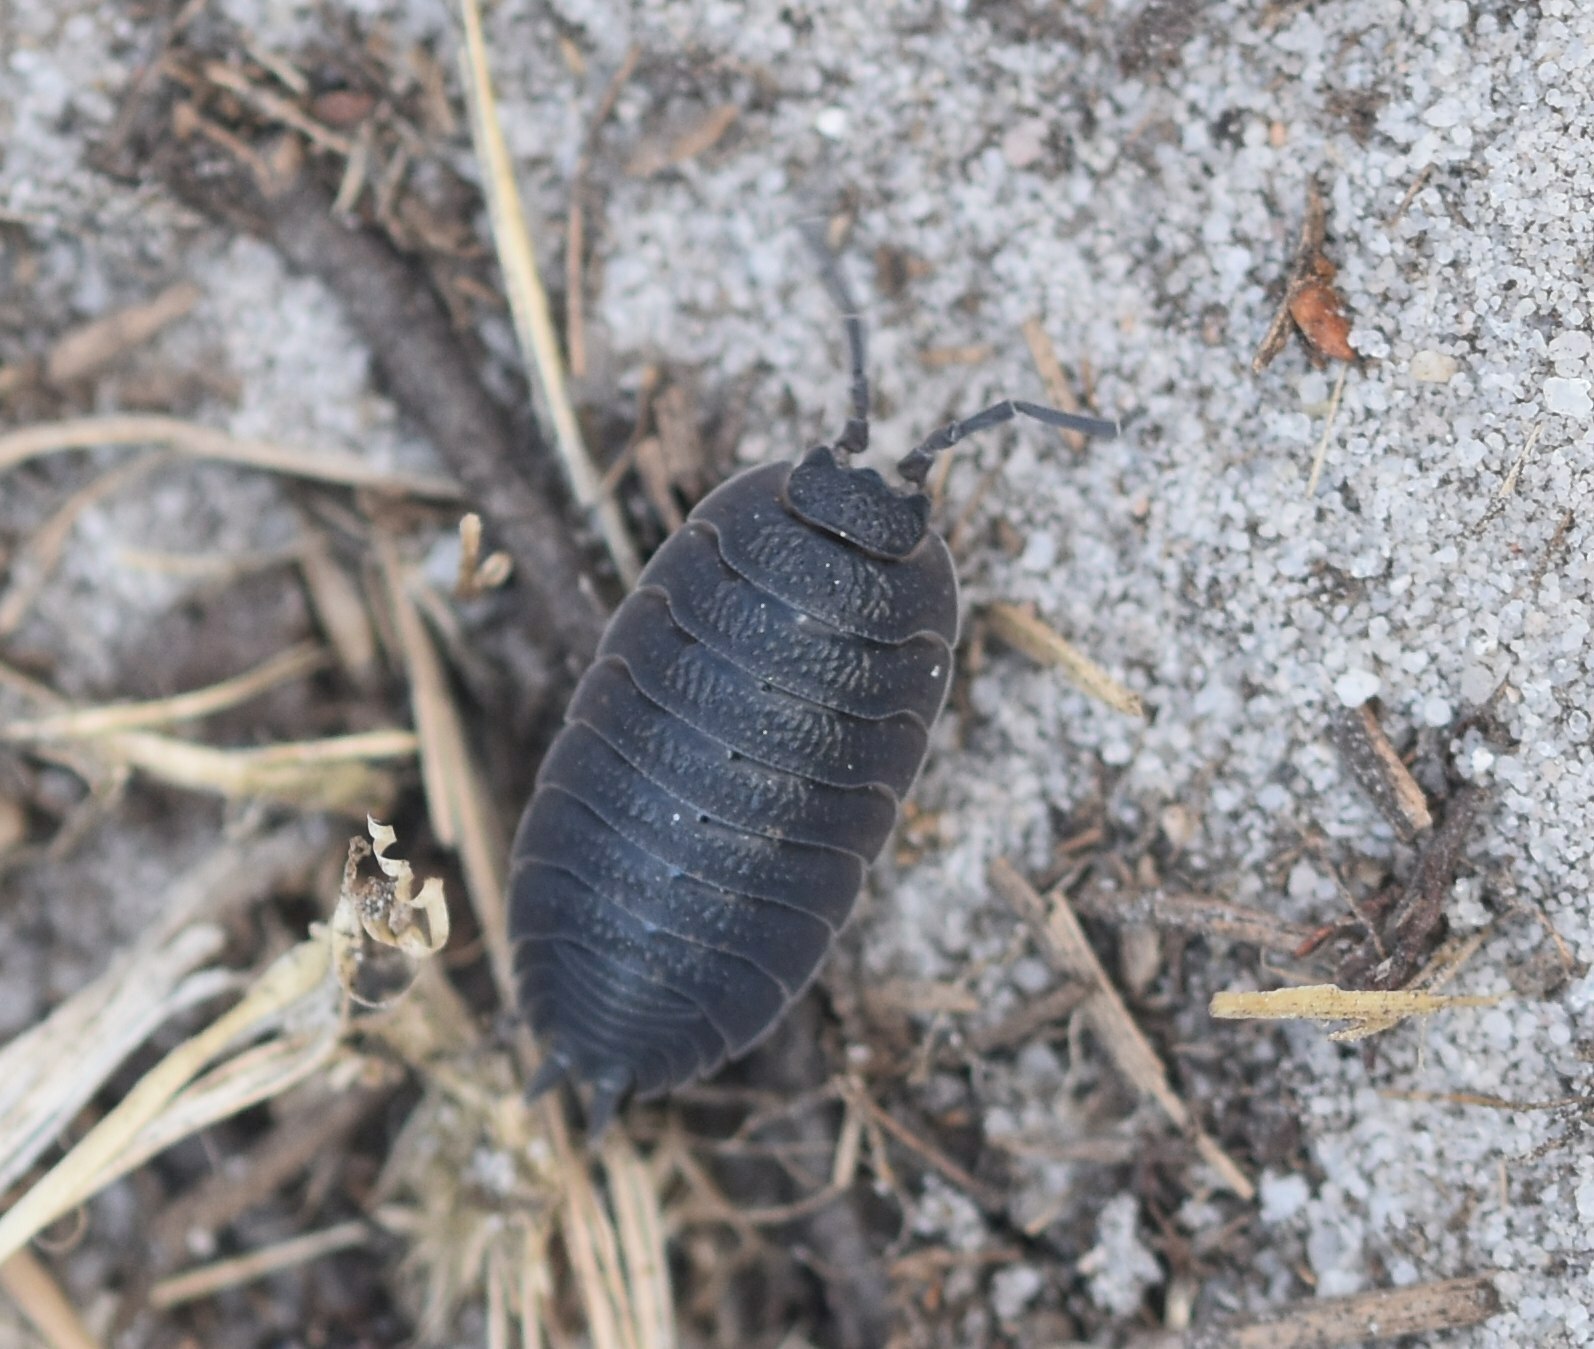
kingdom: Animalia
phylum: Arthropoda
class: Malacostraca
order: Isopoda
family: Porcellionidae
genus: Porcellio
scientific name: Porcellio scaber
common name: Common rough woodlouse
